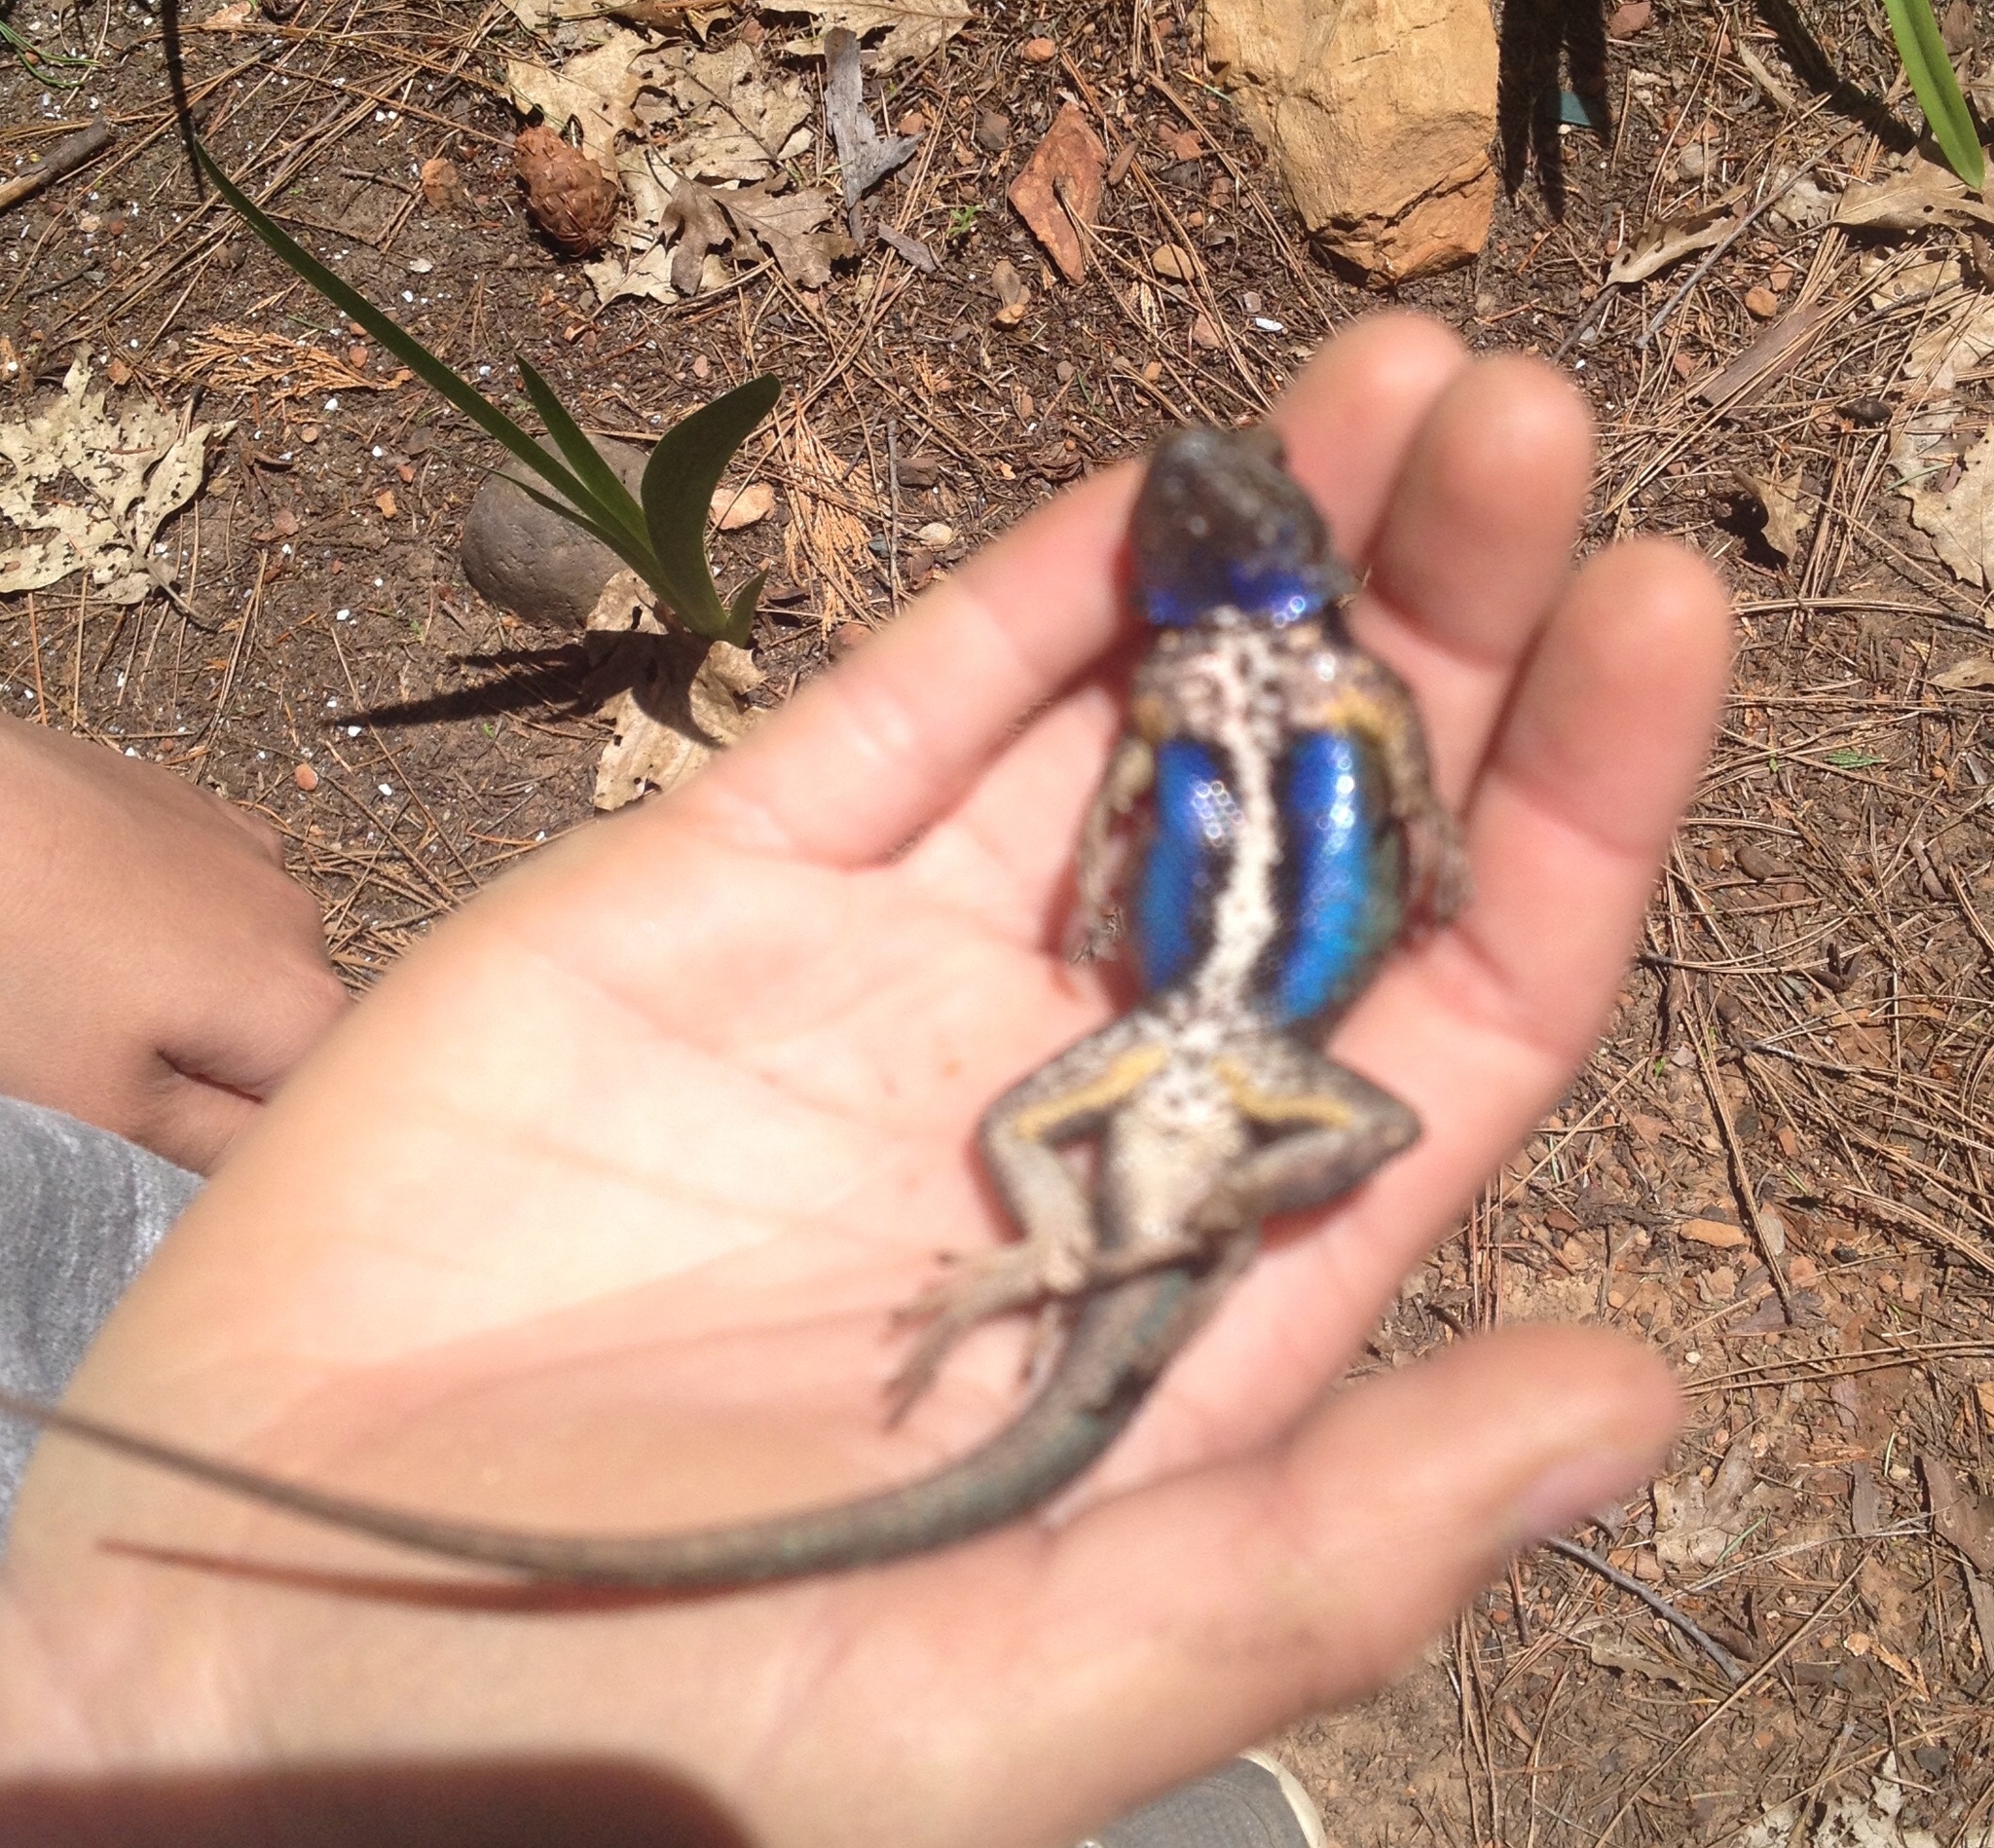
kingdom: Animalia
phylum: Chordata
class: Squamata
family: Phrynosomatidae
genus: Sceloporus
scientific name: Sceloporus occidentalis
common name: Western fence lizard
